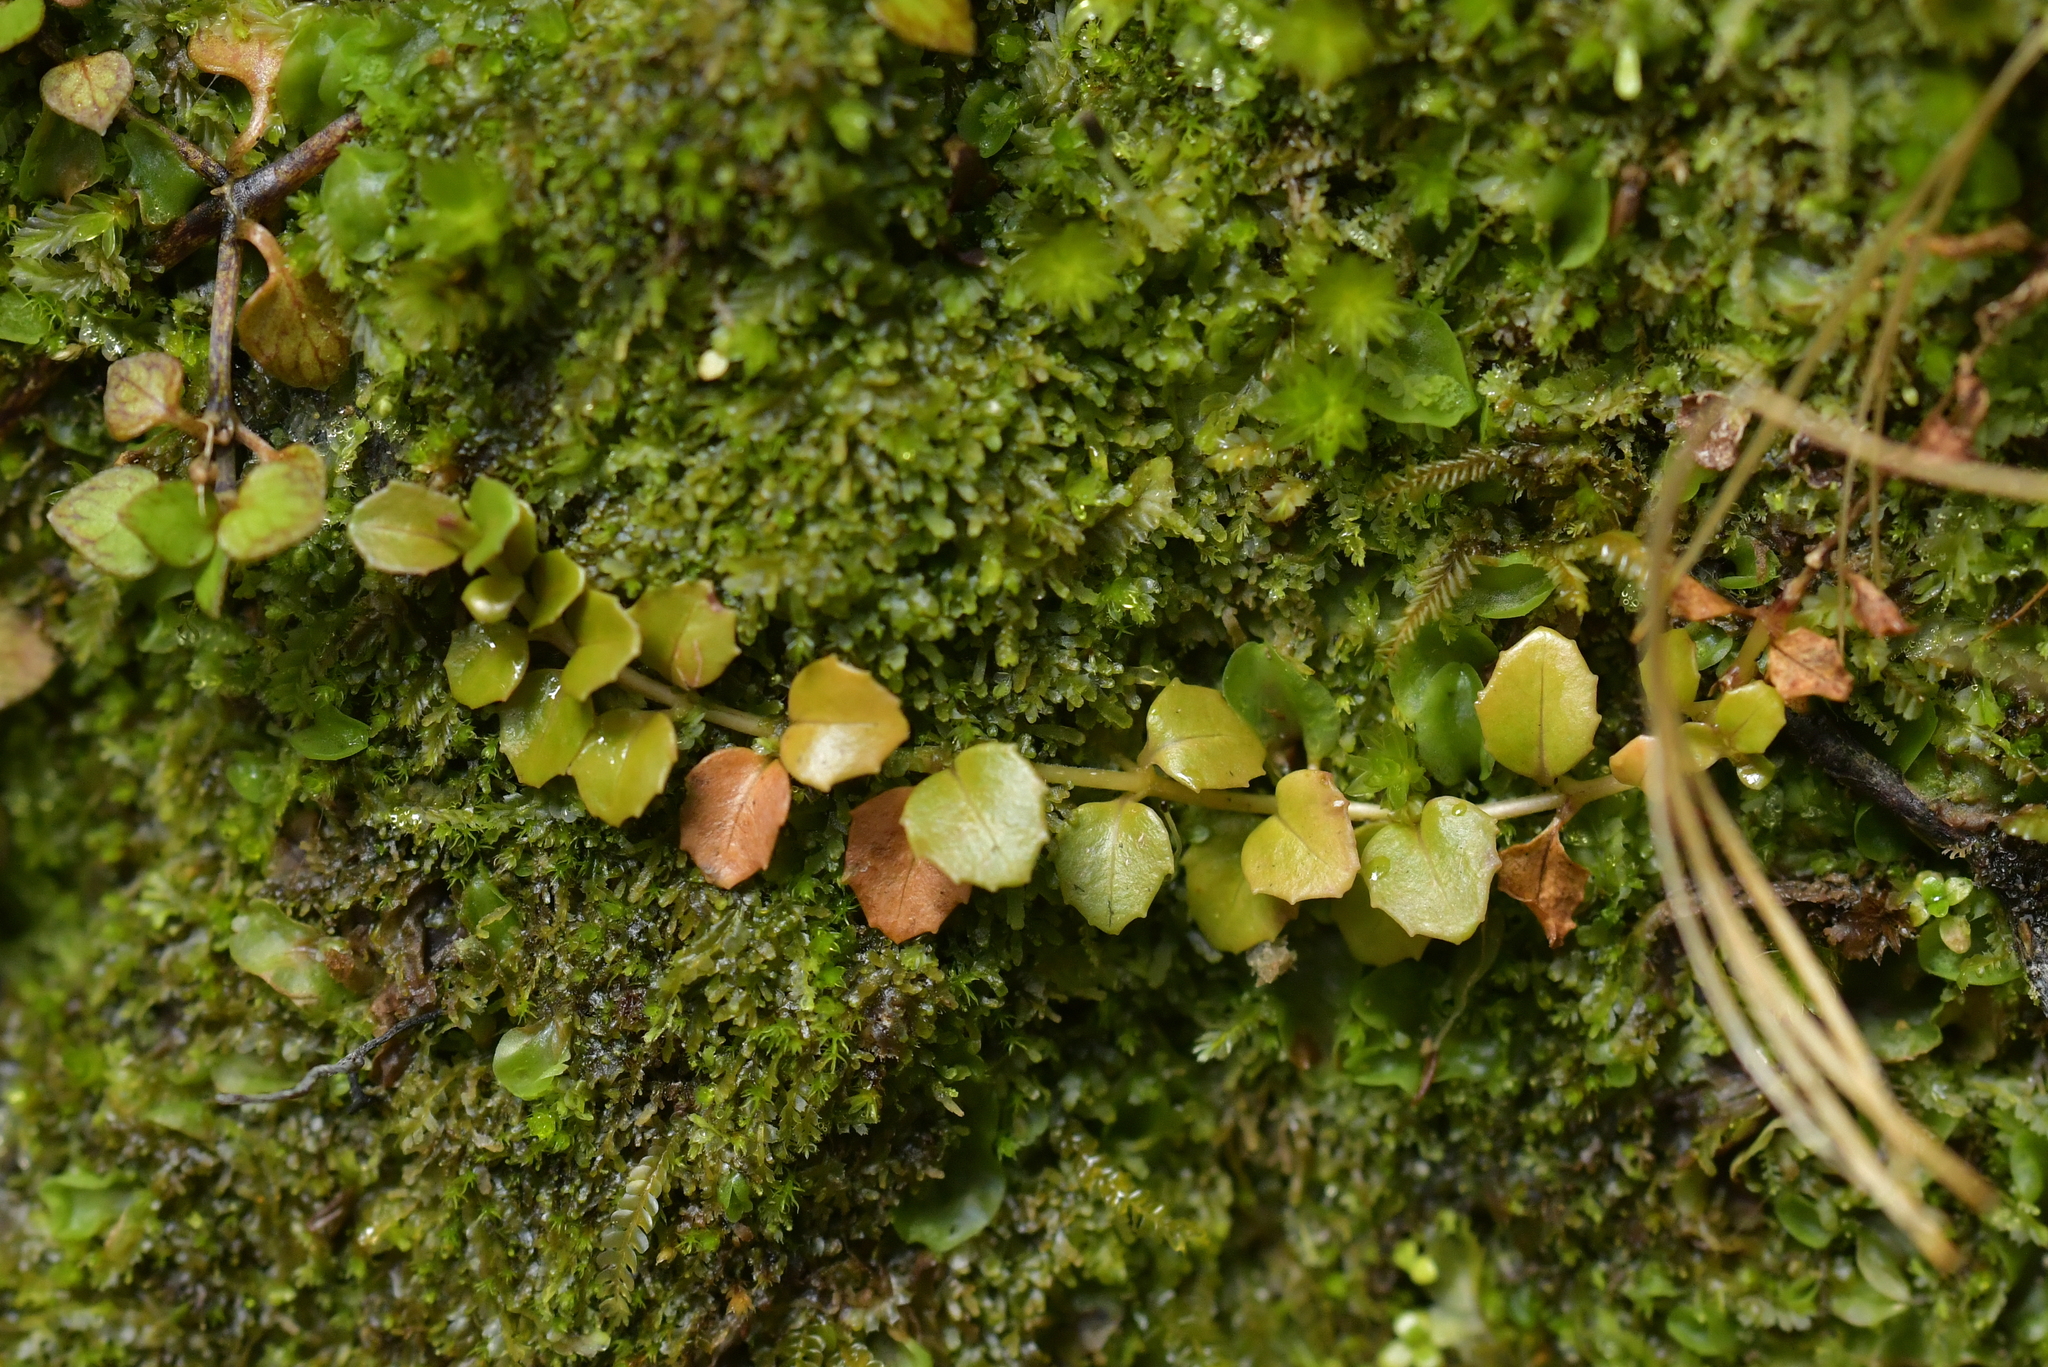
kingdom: Plantae
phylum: Tracheophyta
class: Magnoliopsida
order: Myrtales
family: Onagraceae
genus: Epilobium
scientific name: Epilobium pedunculare
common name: Rockery willowherb
